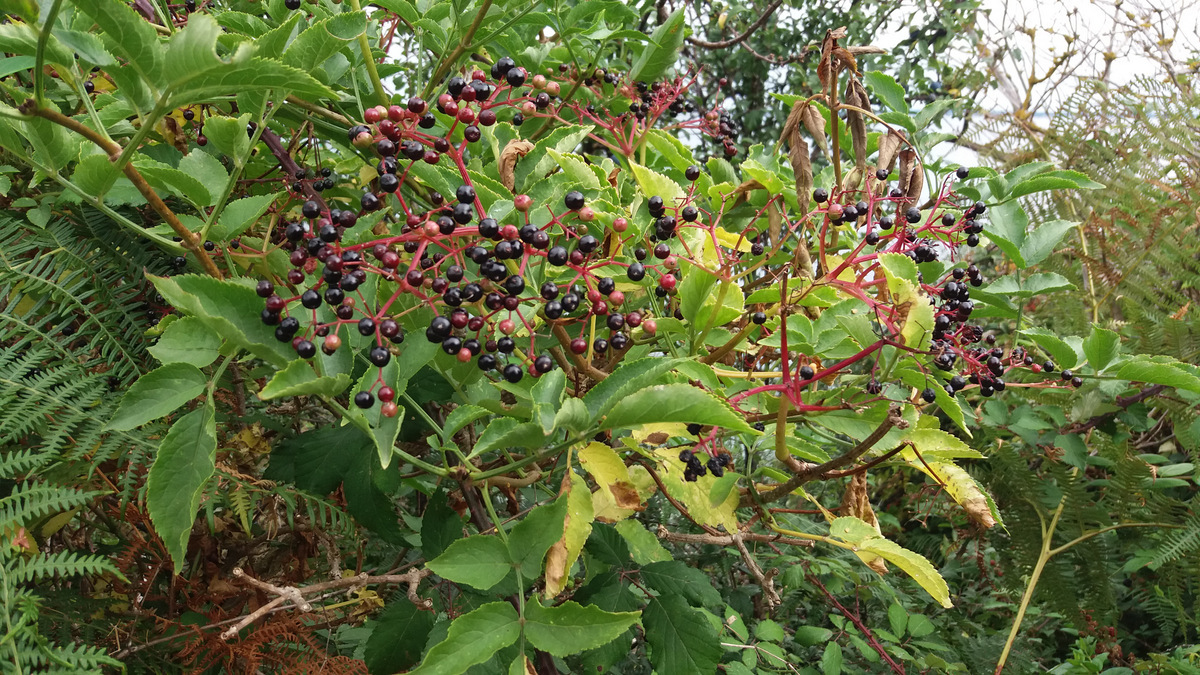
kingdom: Plantae
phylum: Tracheophyta
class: Magnoliopsida
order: Dipsacales
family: Viburnaceae
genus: Sambucus
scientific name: Sambucus nigra
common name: Elder
